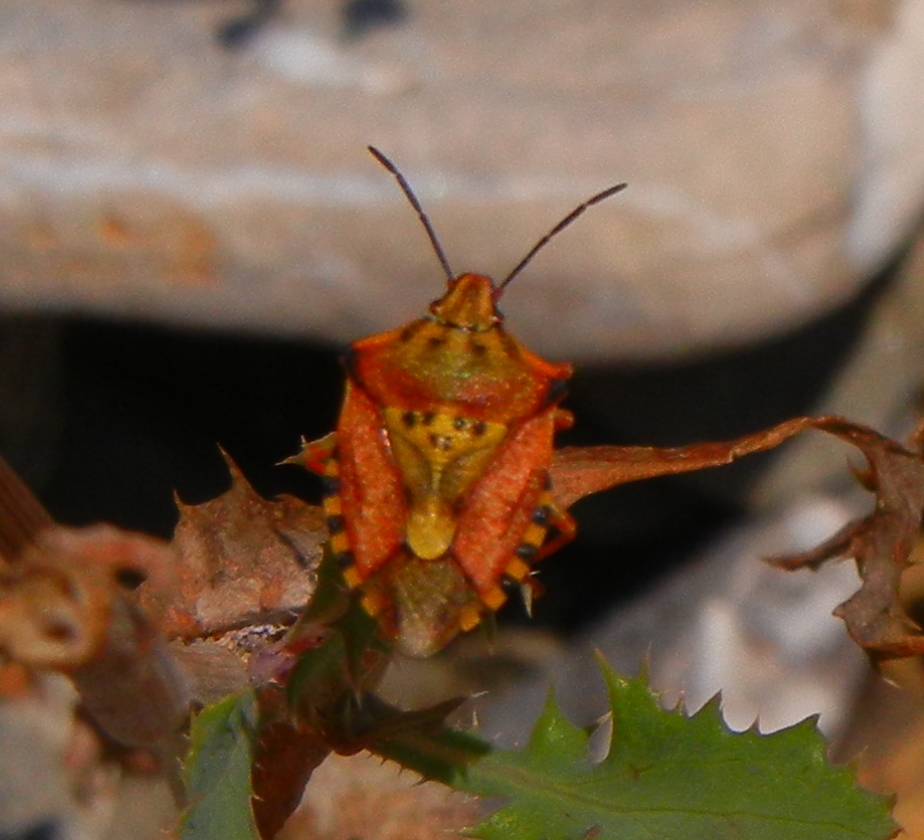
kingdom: Animalia
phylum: Arthropoda
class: Insecta
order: Hemiptera
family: Pentatomidae
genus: Carpocoris
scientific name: Carpocoris mediterraneus
